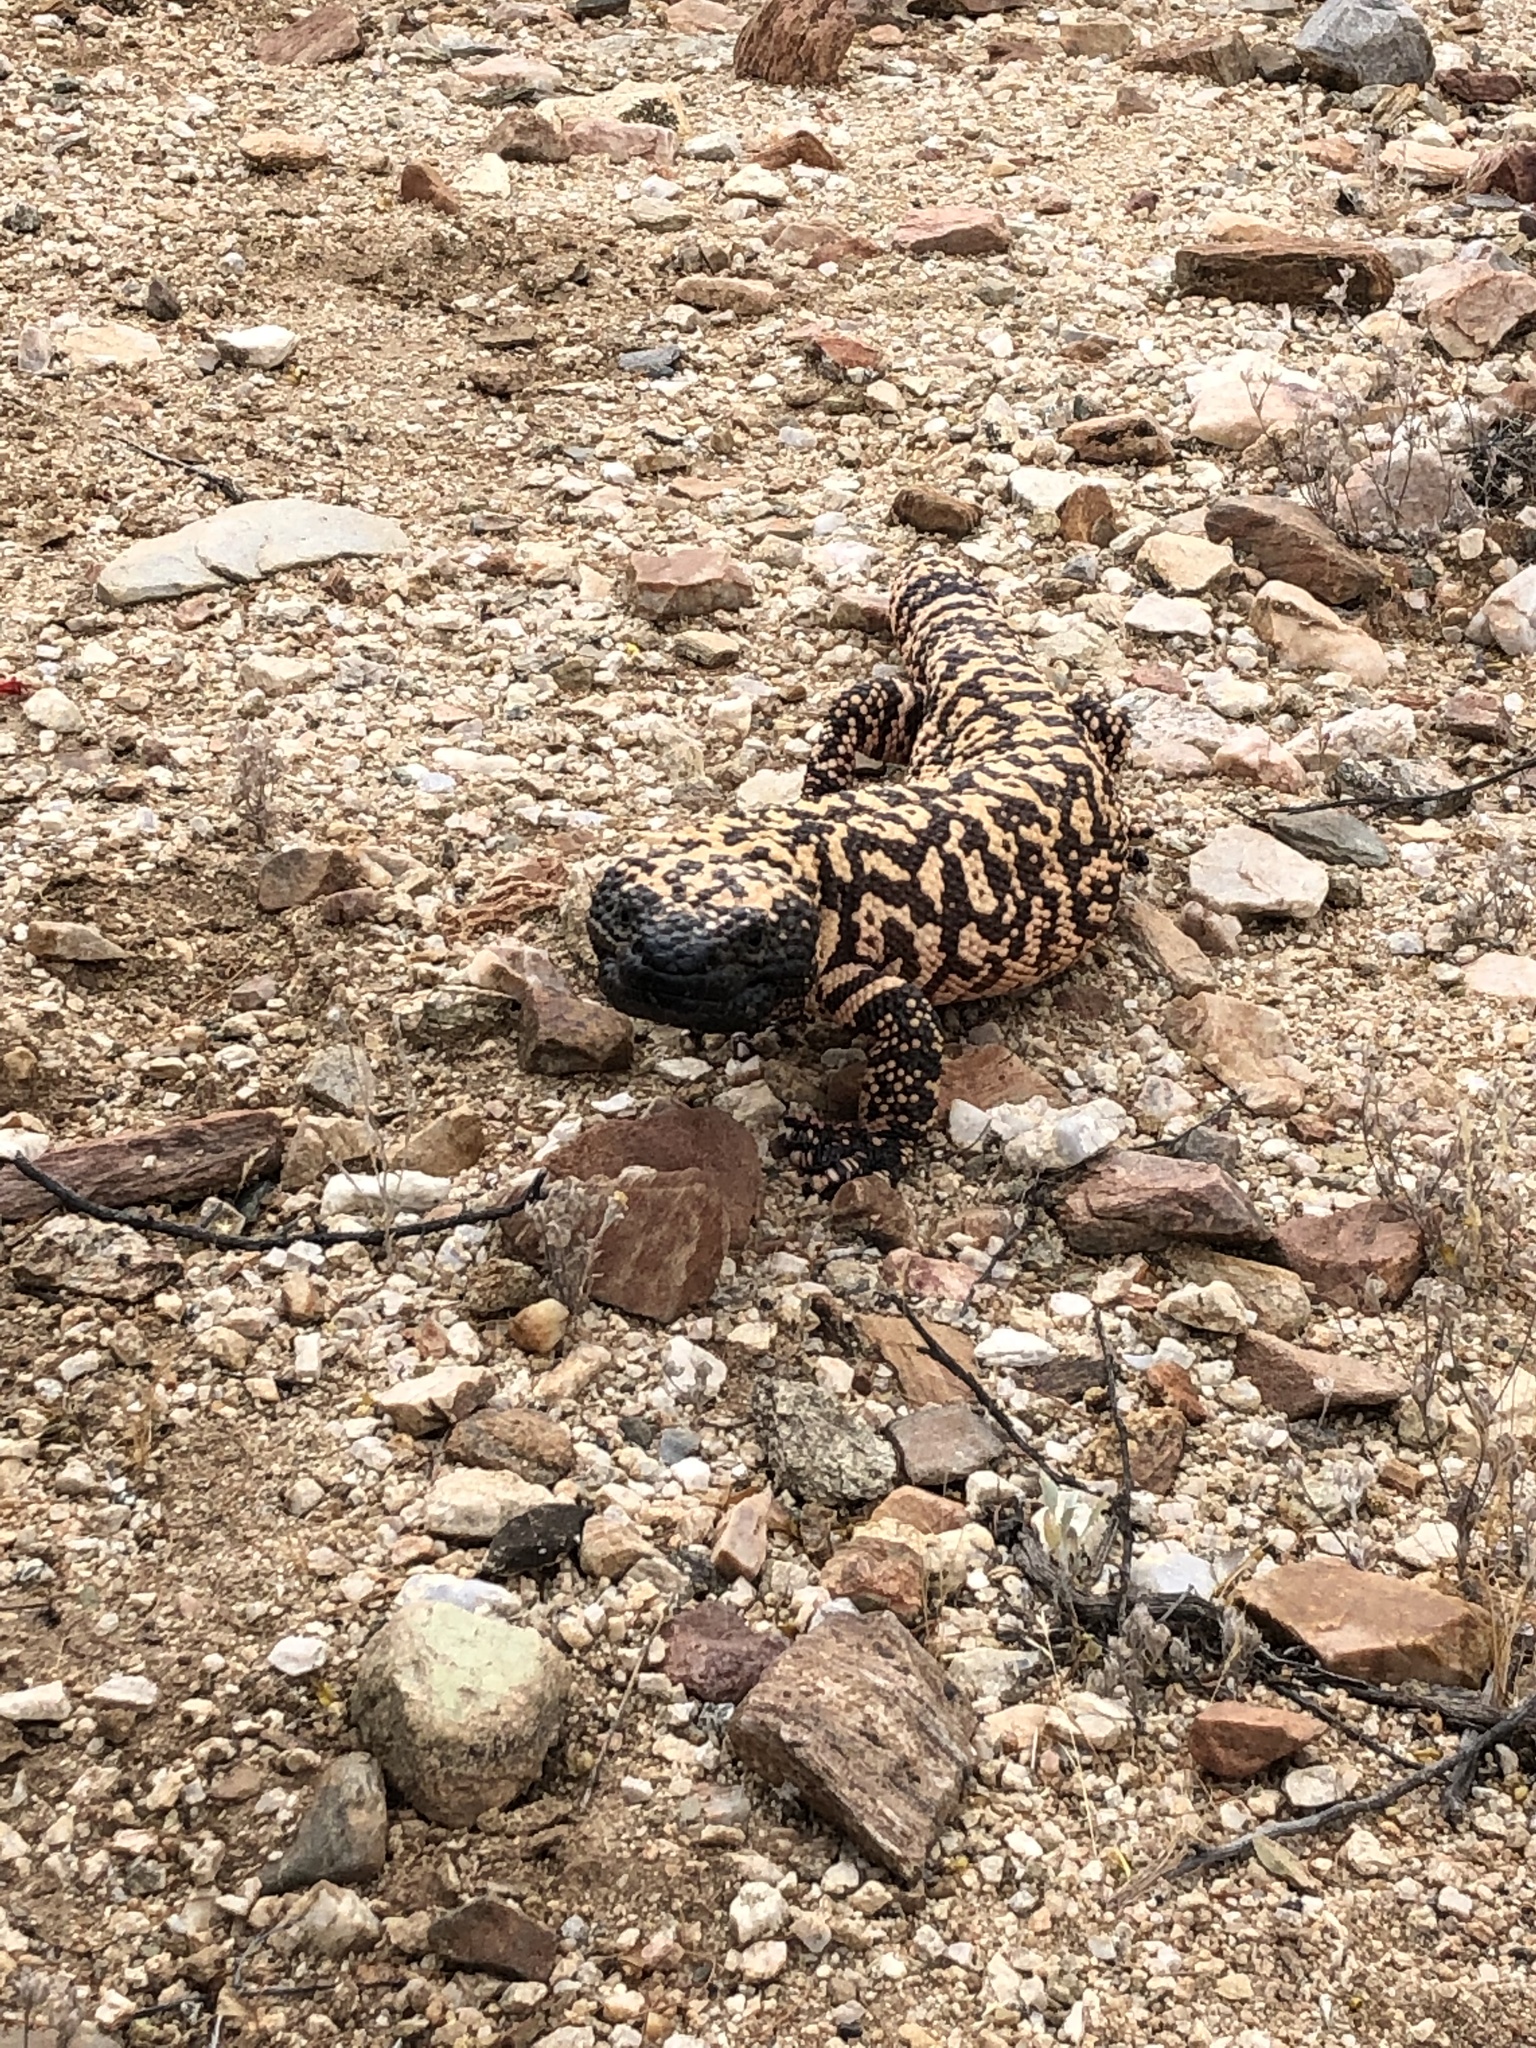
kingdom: Animalia
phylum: Chordata
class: Squamata
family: Helodermatidae
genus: Heloderma
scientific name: Heloderma suspectum
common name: Gila monster
